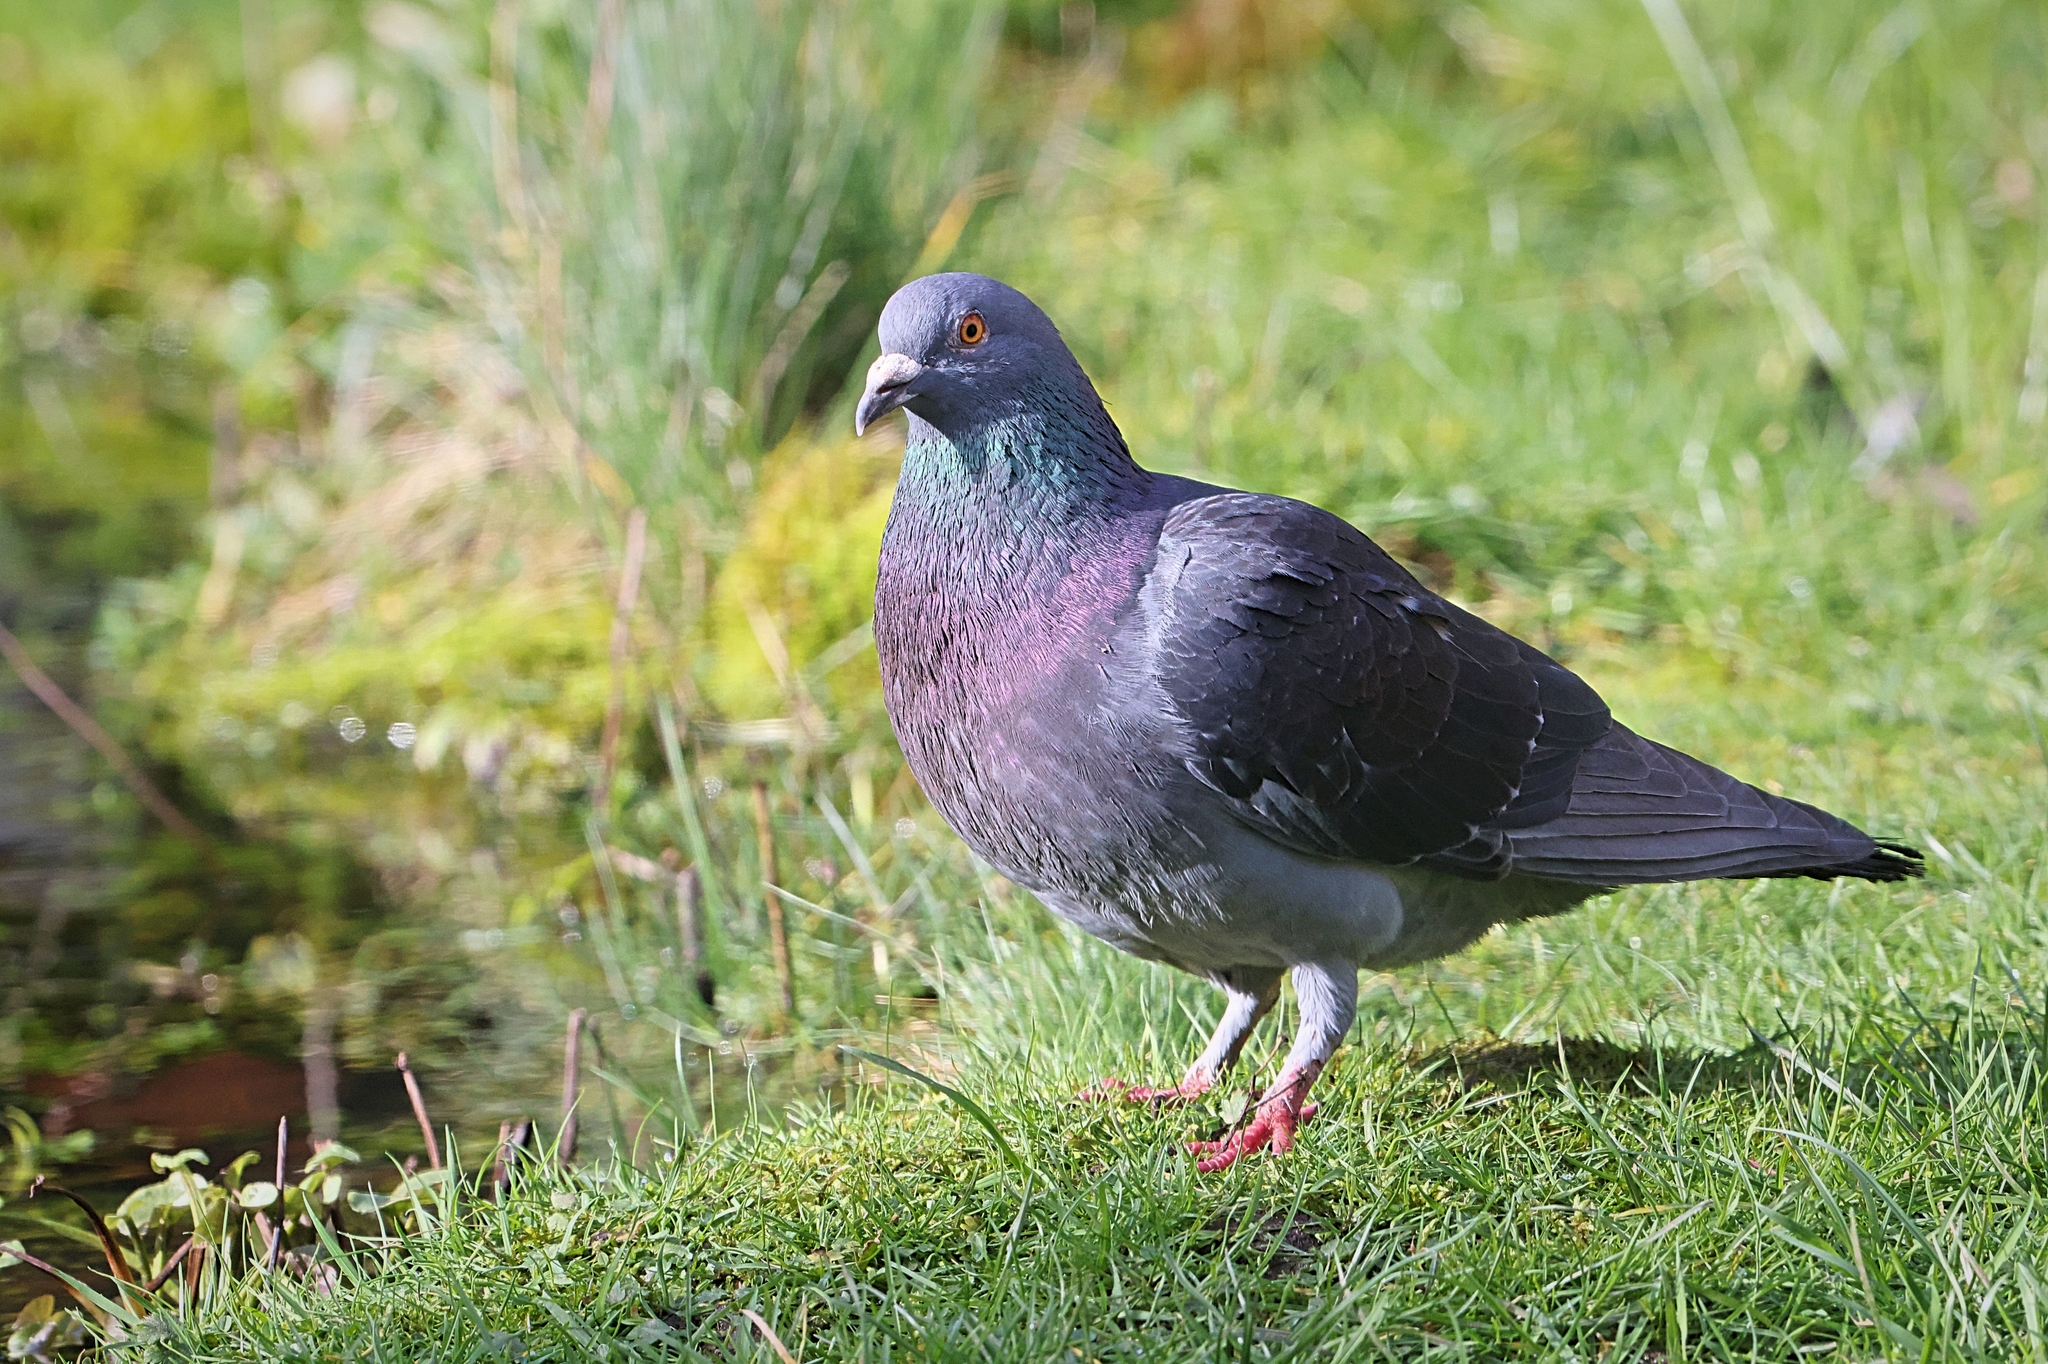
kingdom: Animalia
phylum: Chordata
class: Aves
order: Columbiformes
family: Columbidae
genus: Columba
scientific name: Columba livia
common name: Rock pigeon
